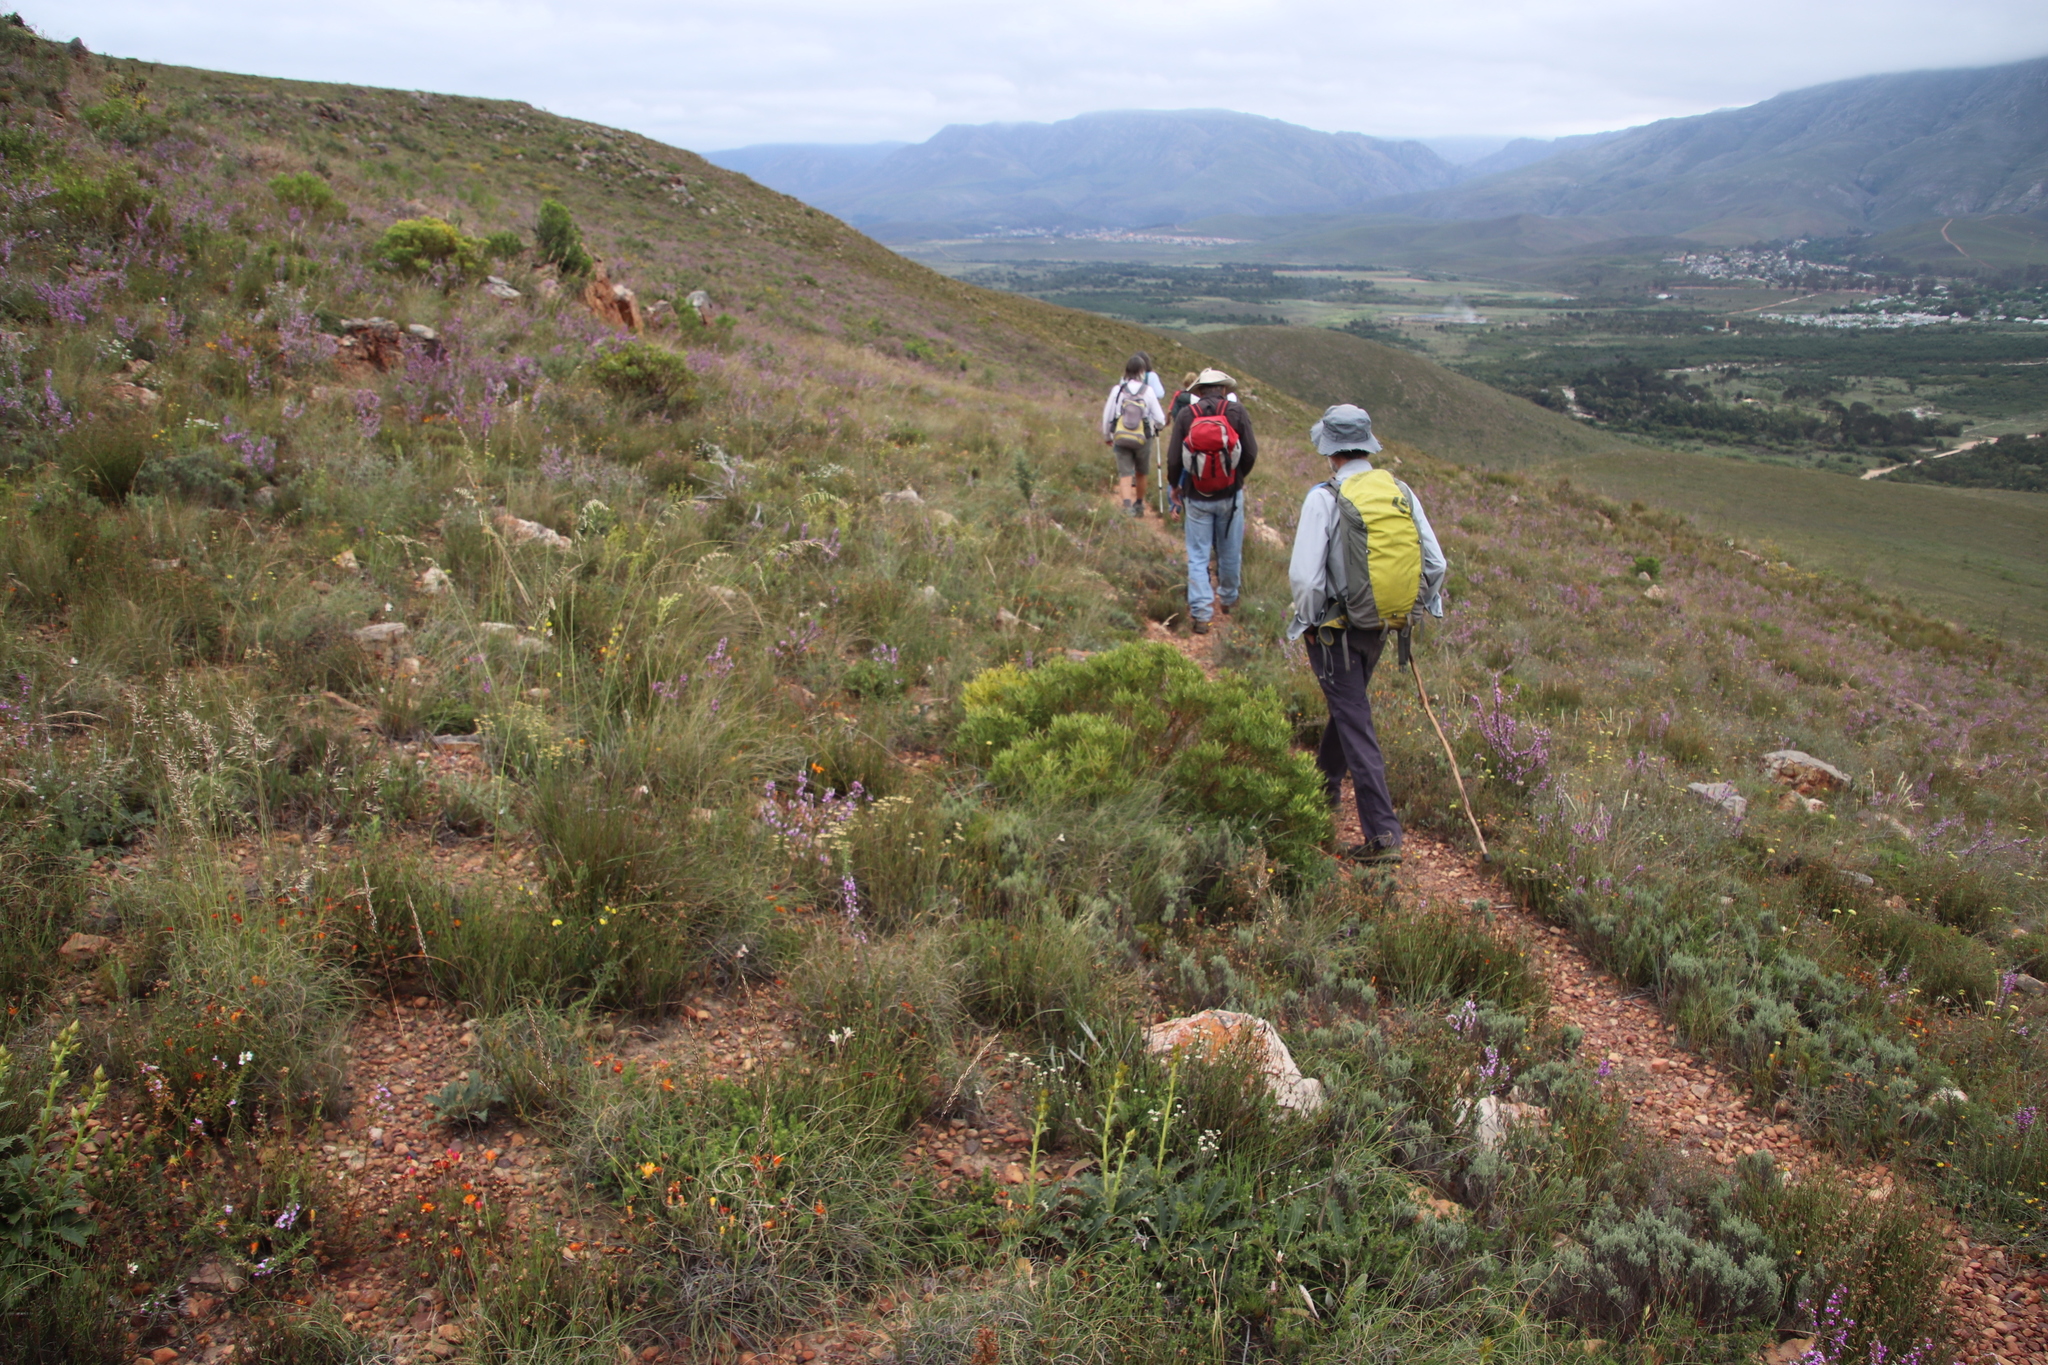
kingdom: Plantae
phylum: Tracheophyta
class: Magnoliopsida
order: Proteales
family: Proteaceae
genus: Leucadendron
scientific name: Leucadendron salignum
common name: Common sunshine conebush
